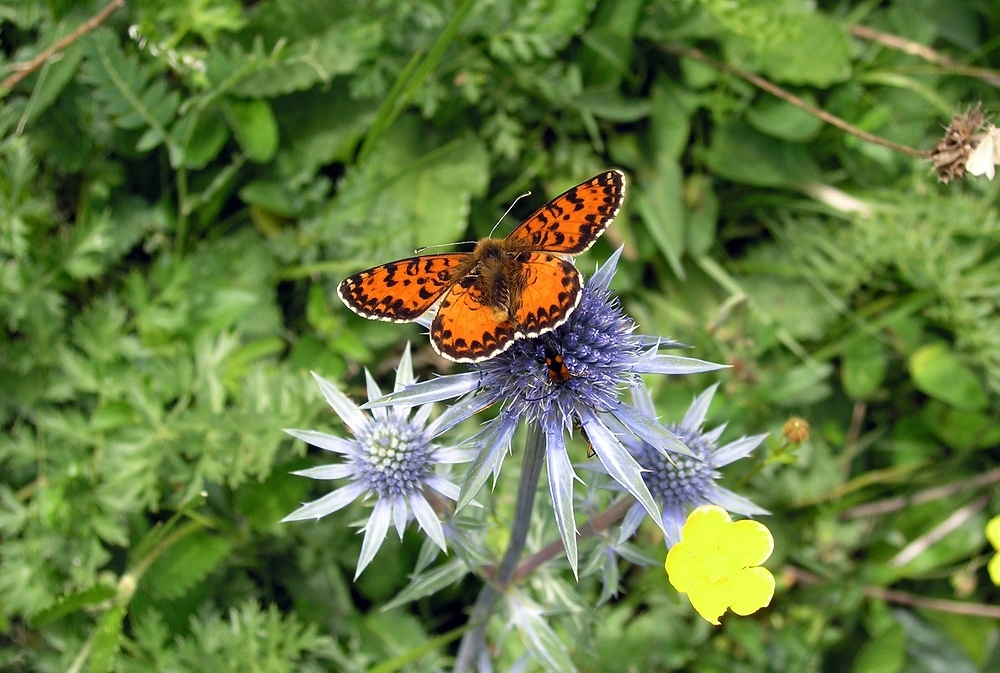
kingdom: Animalia
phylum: Arthropoda
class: Insecta
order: Lepidoptera
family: Nymphalidae
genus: Melitaea
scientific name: Melitaea didyma
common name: Spotted fritillary
